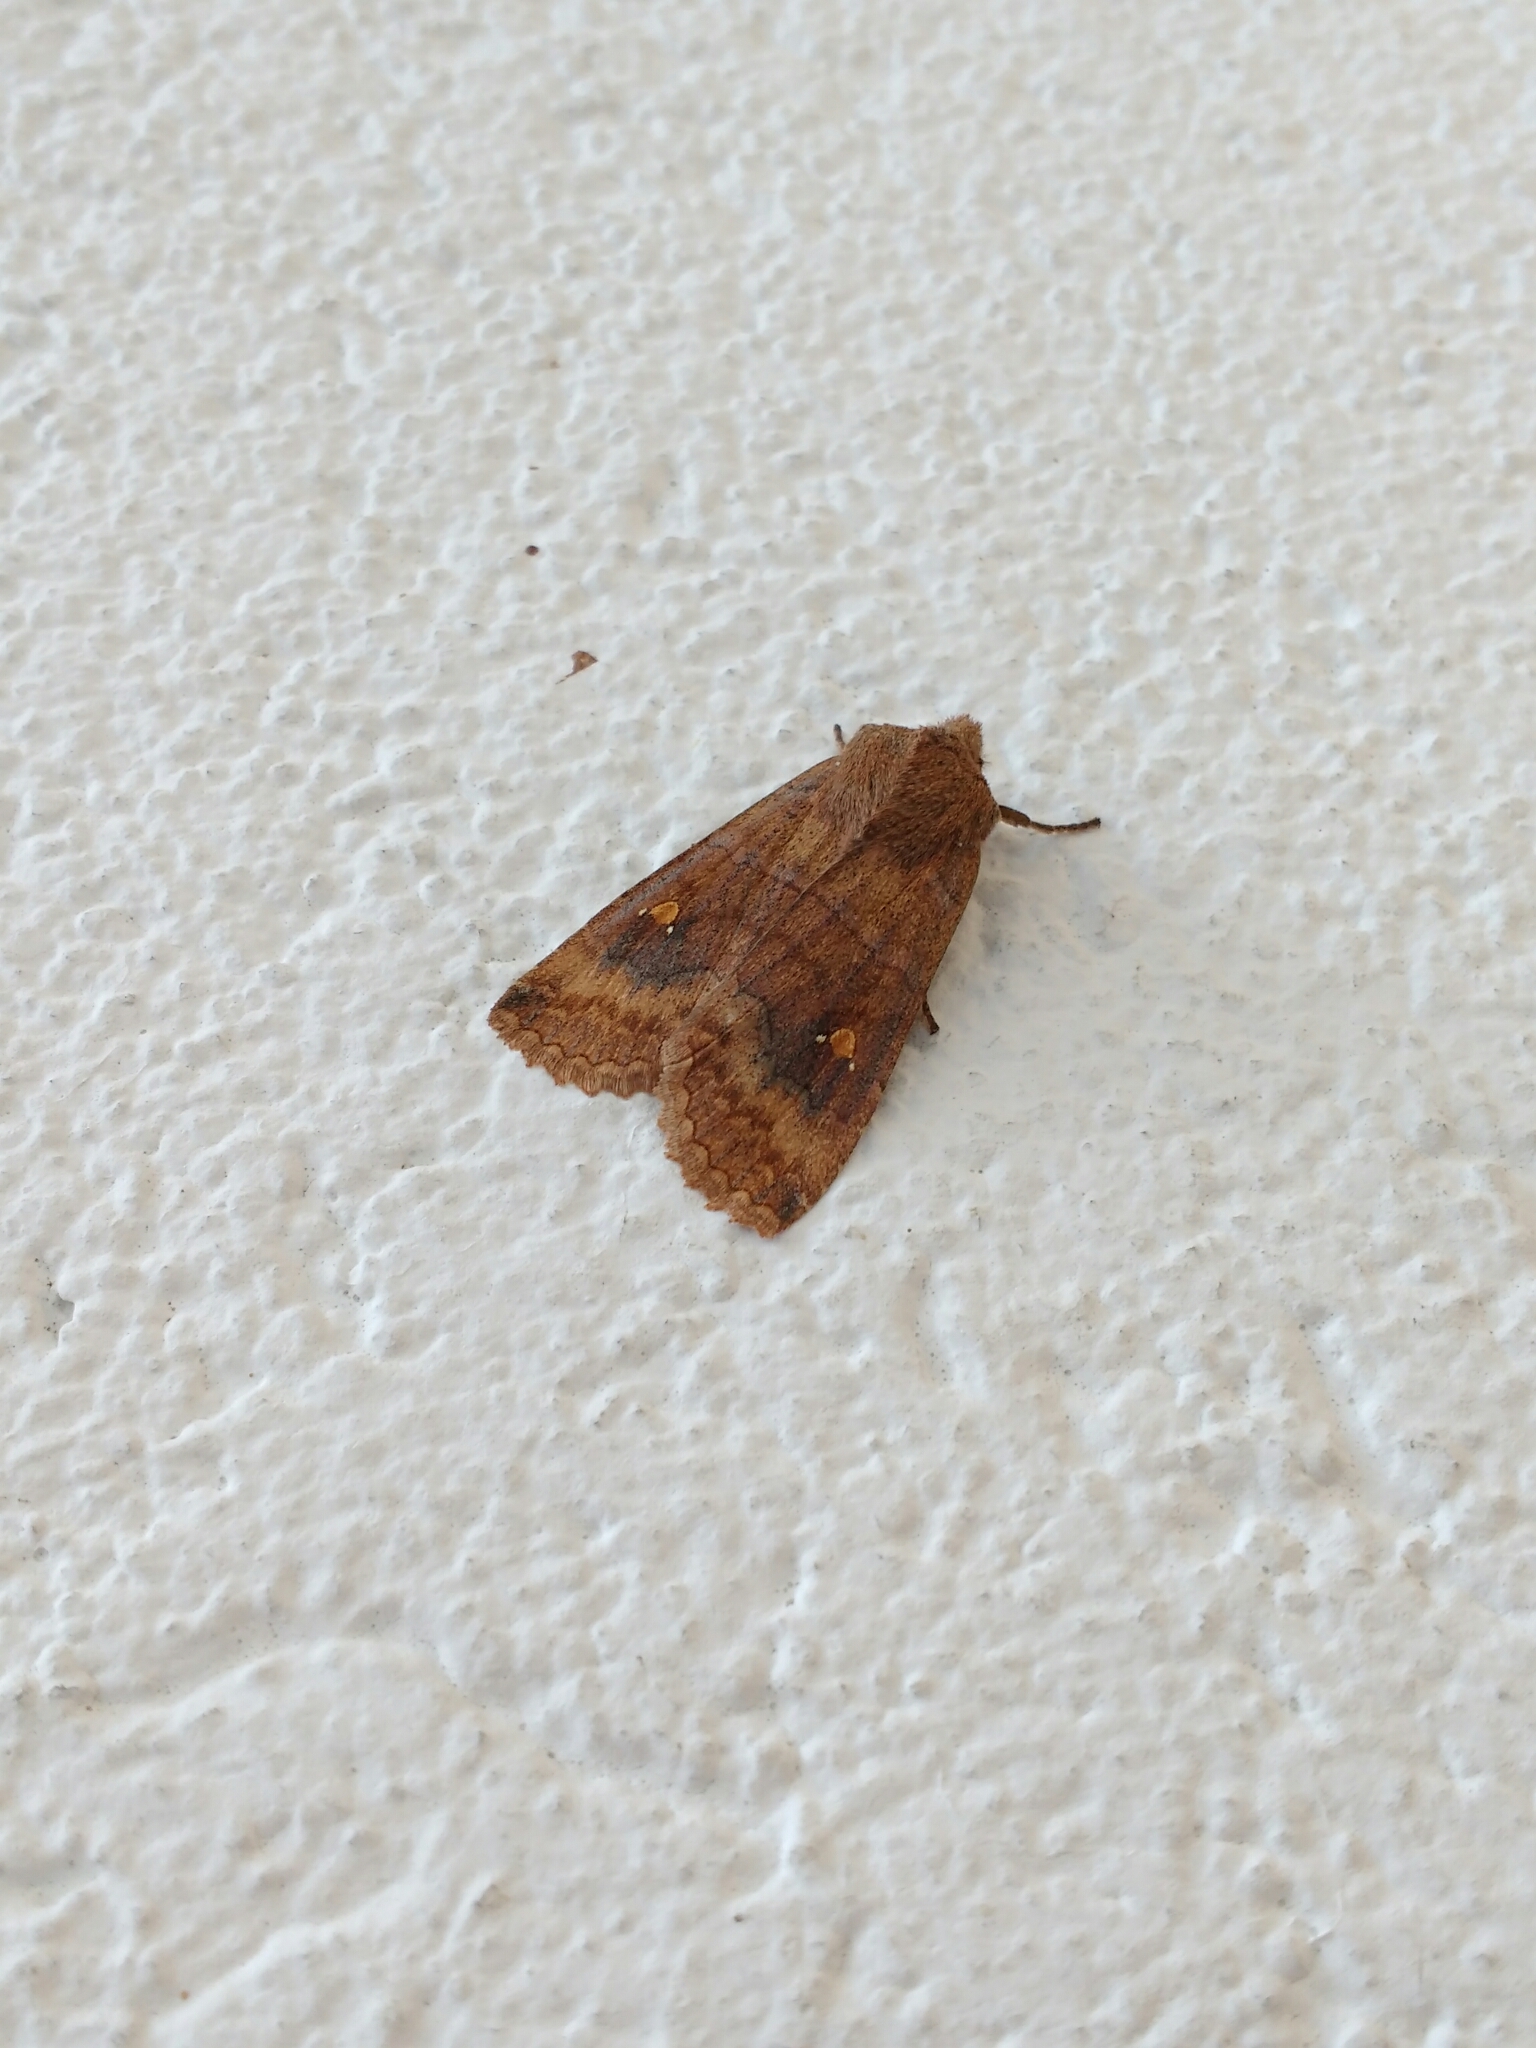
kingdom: Animalia
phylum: Arthropoda
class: Insecta
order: Lepidoptera
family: Noctuidae
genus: Eupsilia
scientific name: Eupsilia transversa
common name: Satellite
